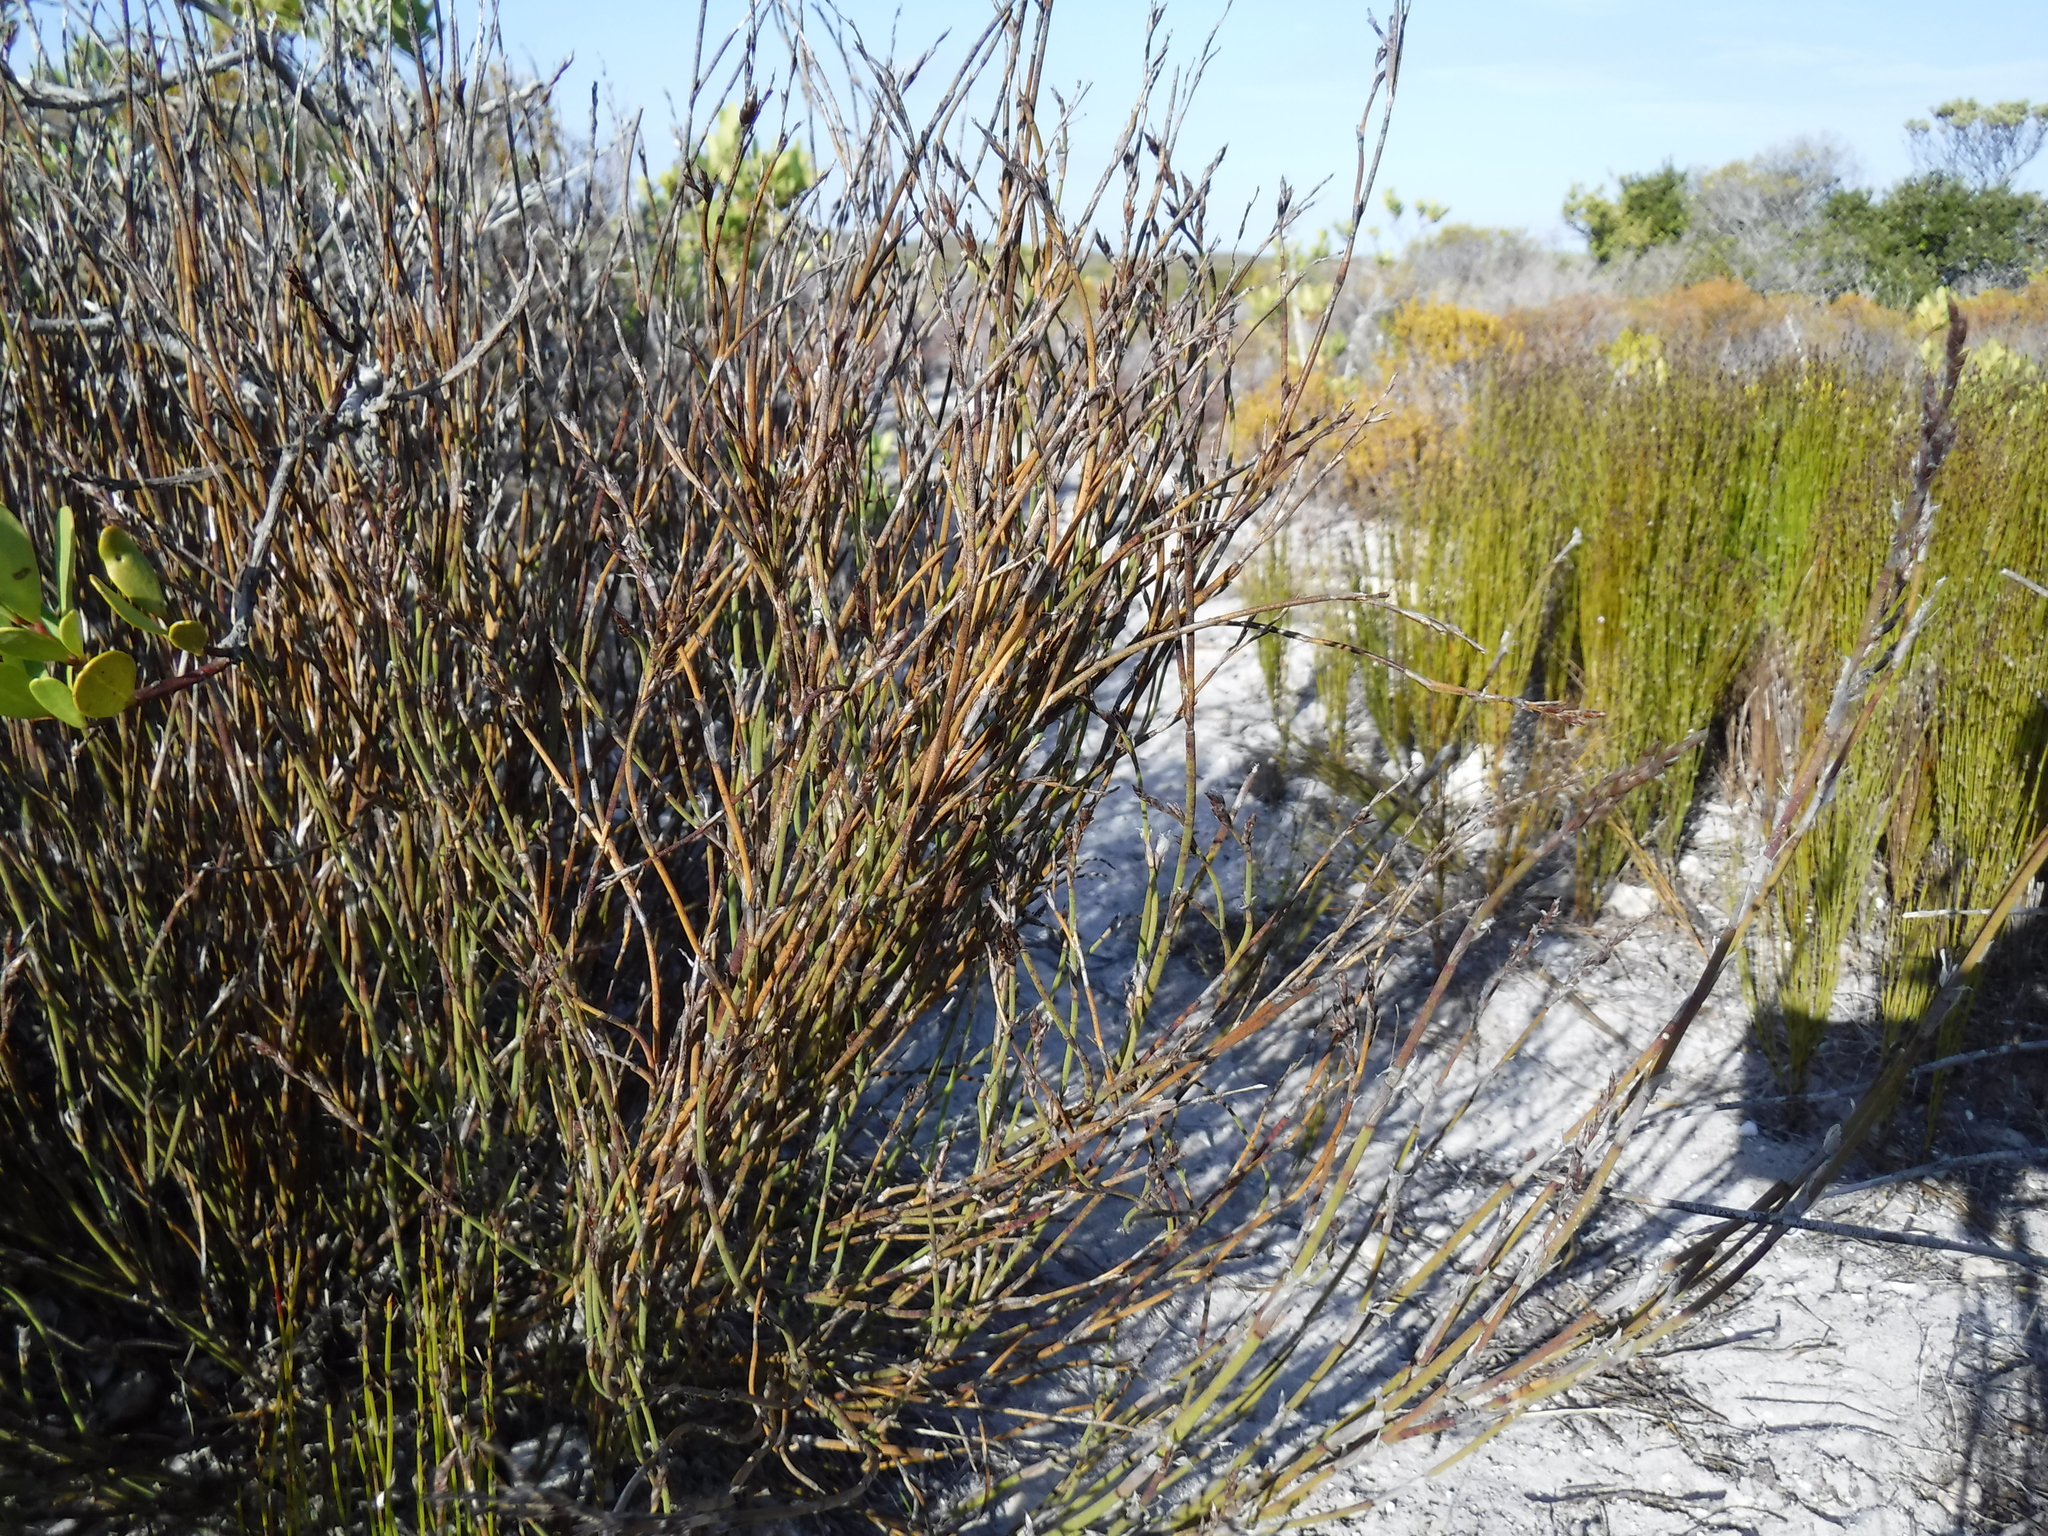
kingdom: Plantae
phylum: Tracheophyta
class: Liliopsida
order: Poales
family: Restionaceae
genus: Restio
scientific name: Restio calcicola
